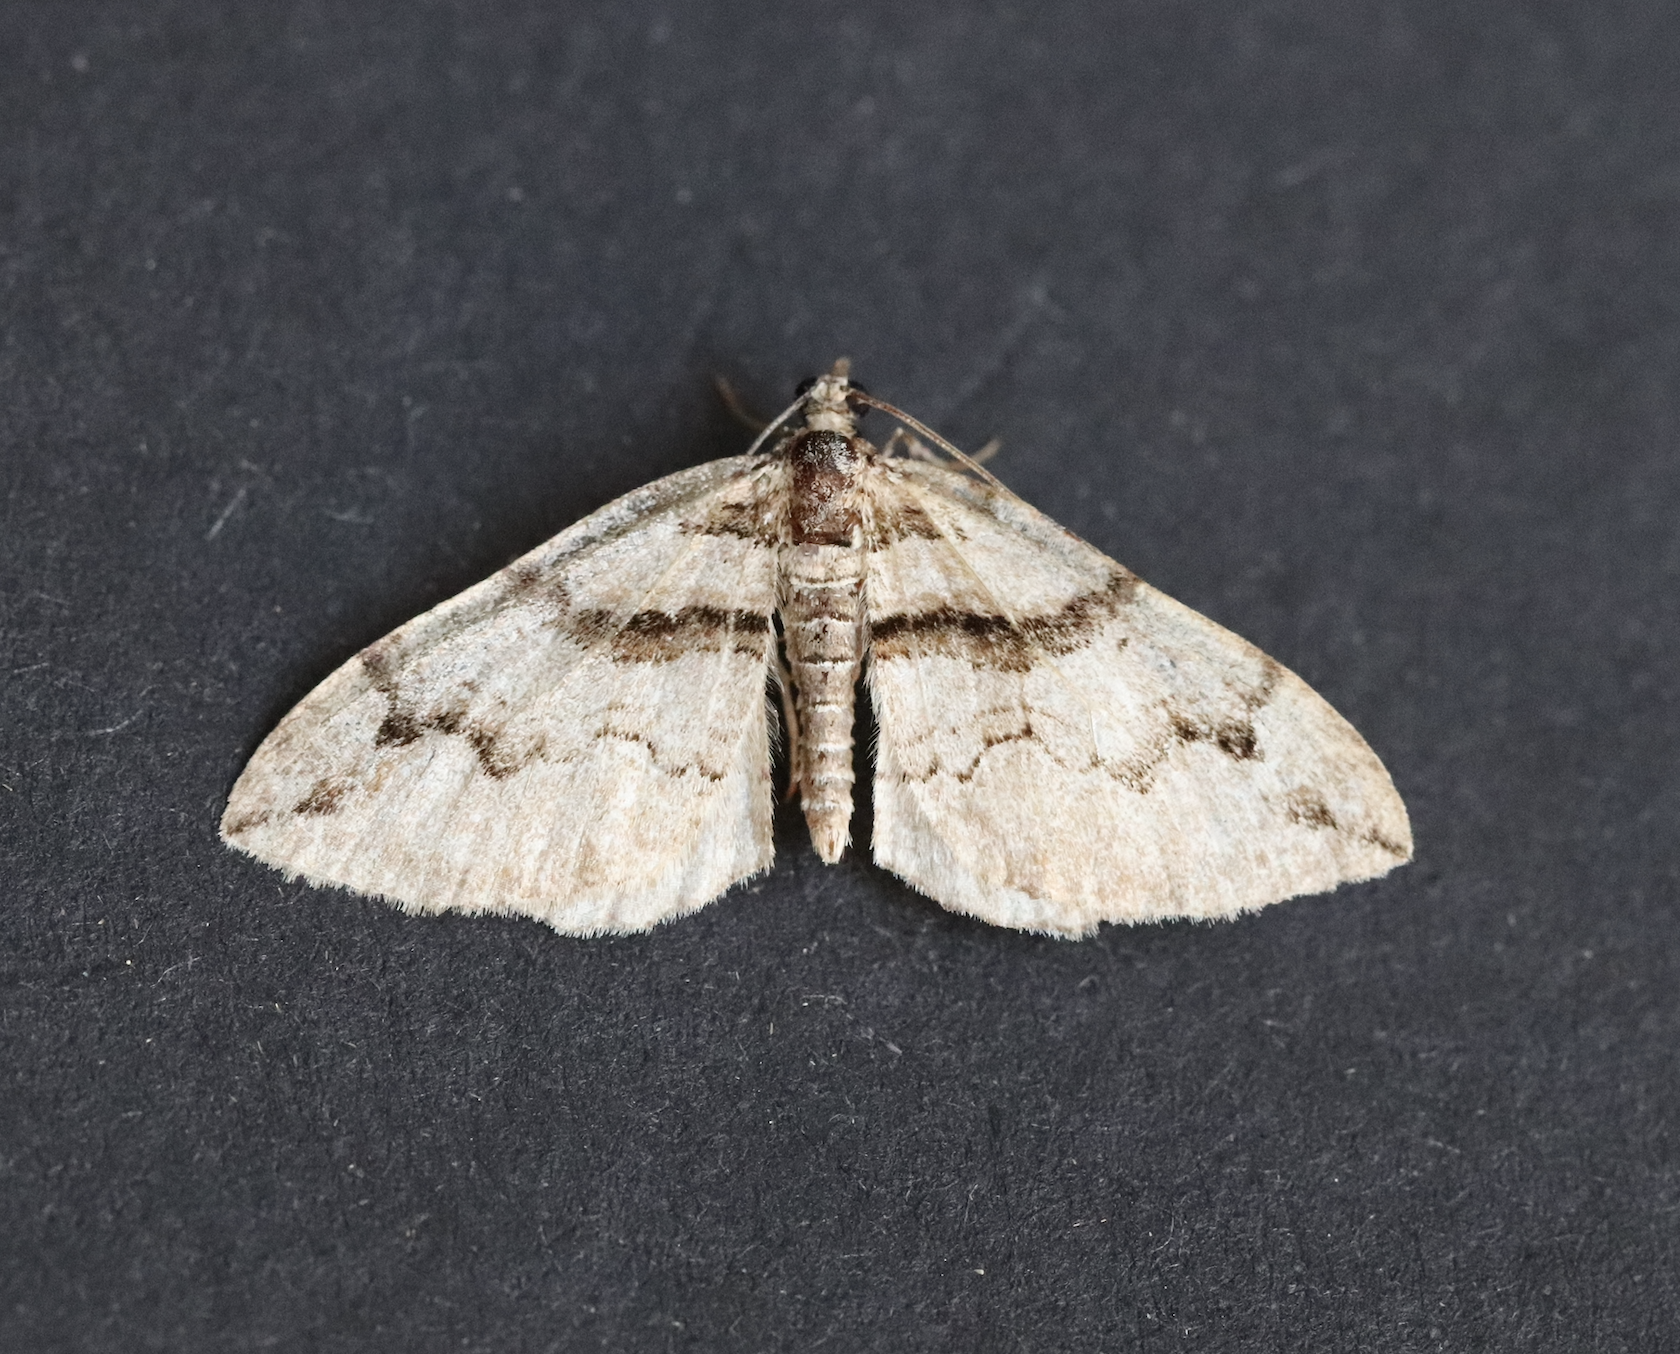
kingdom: Animalia
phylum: Arthropoda
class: Insecta
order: Lepidoptera
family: Geometridae
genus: Pareulype
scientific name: Pareulype berberata
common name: Barberry carpet
